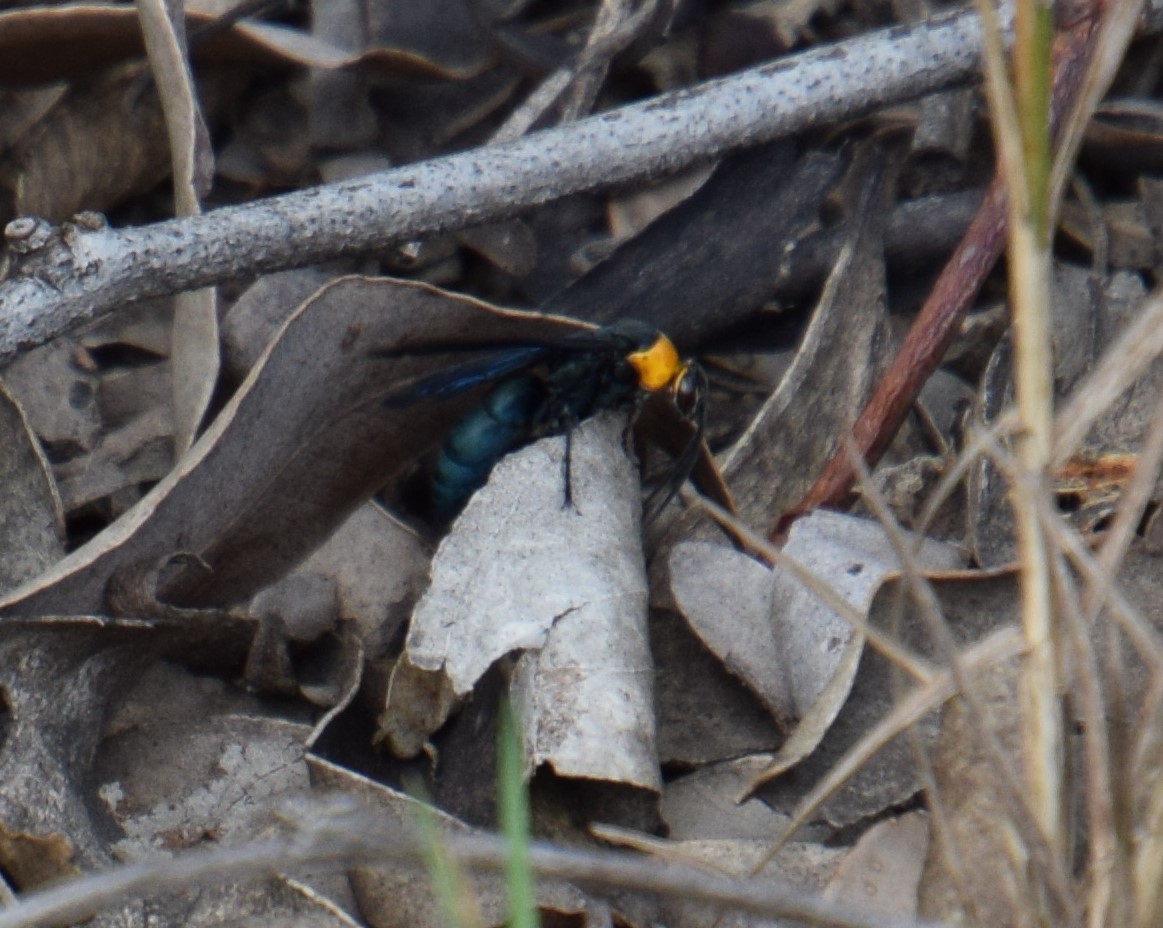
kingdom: Animalia
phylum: Arthropoda
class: Insecta
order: Hymenoptera
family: Pompilidae
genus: Ferreola
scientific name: Ferreola handschini
